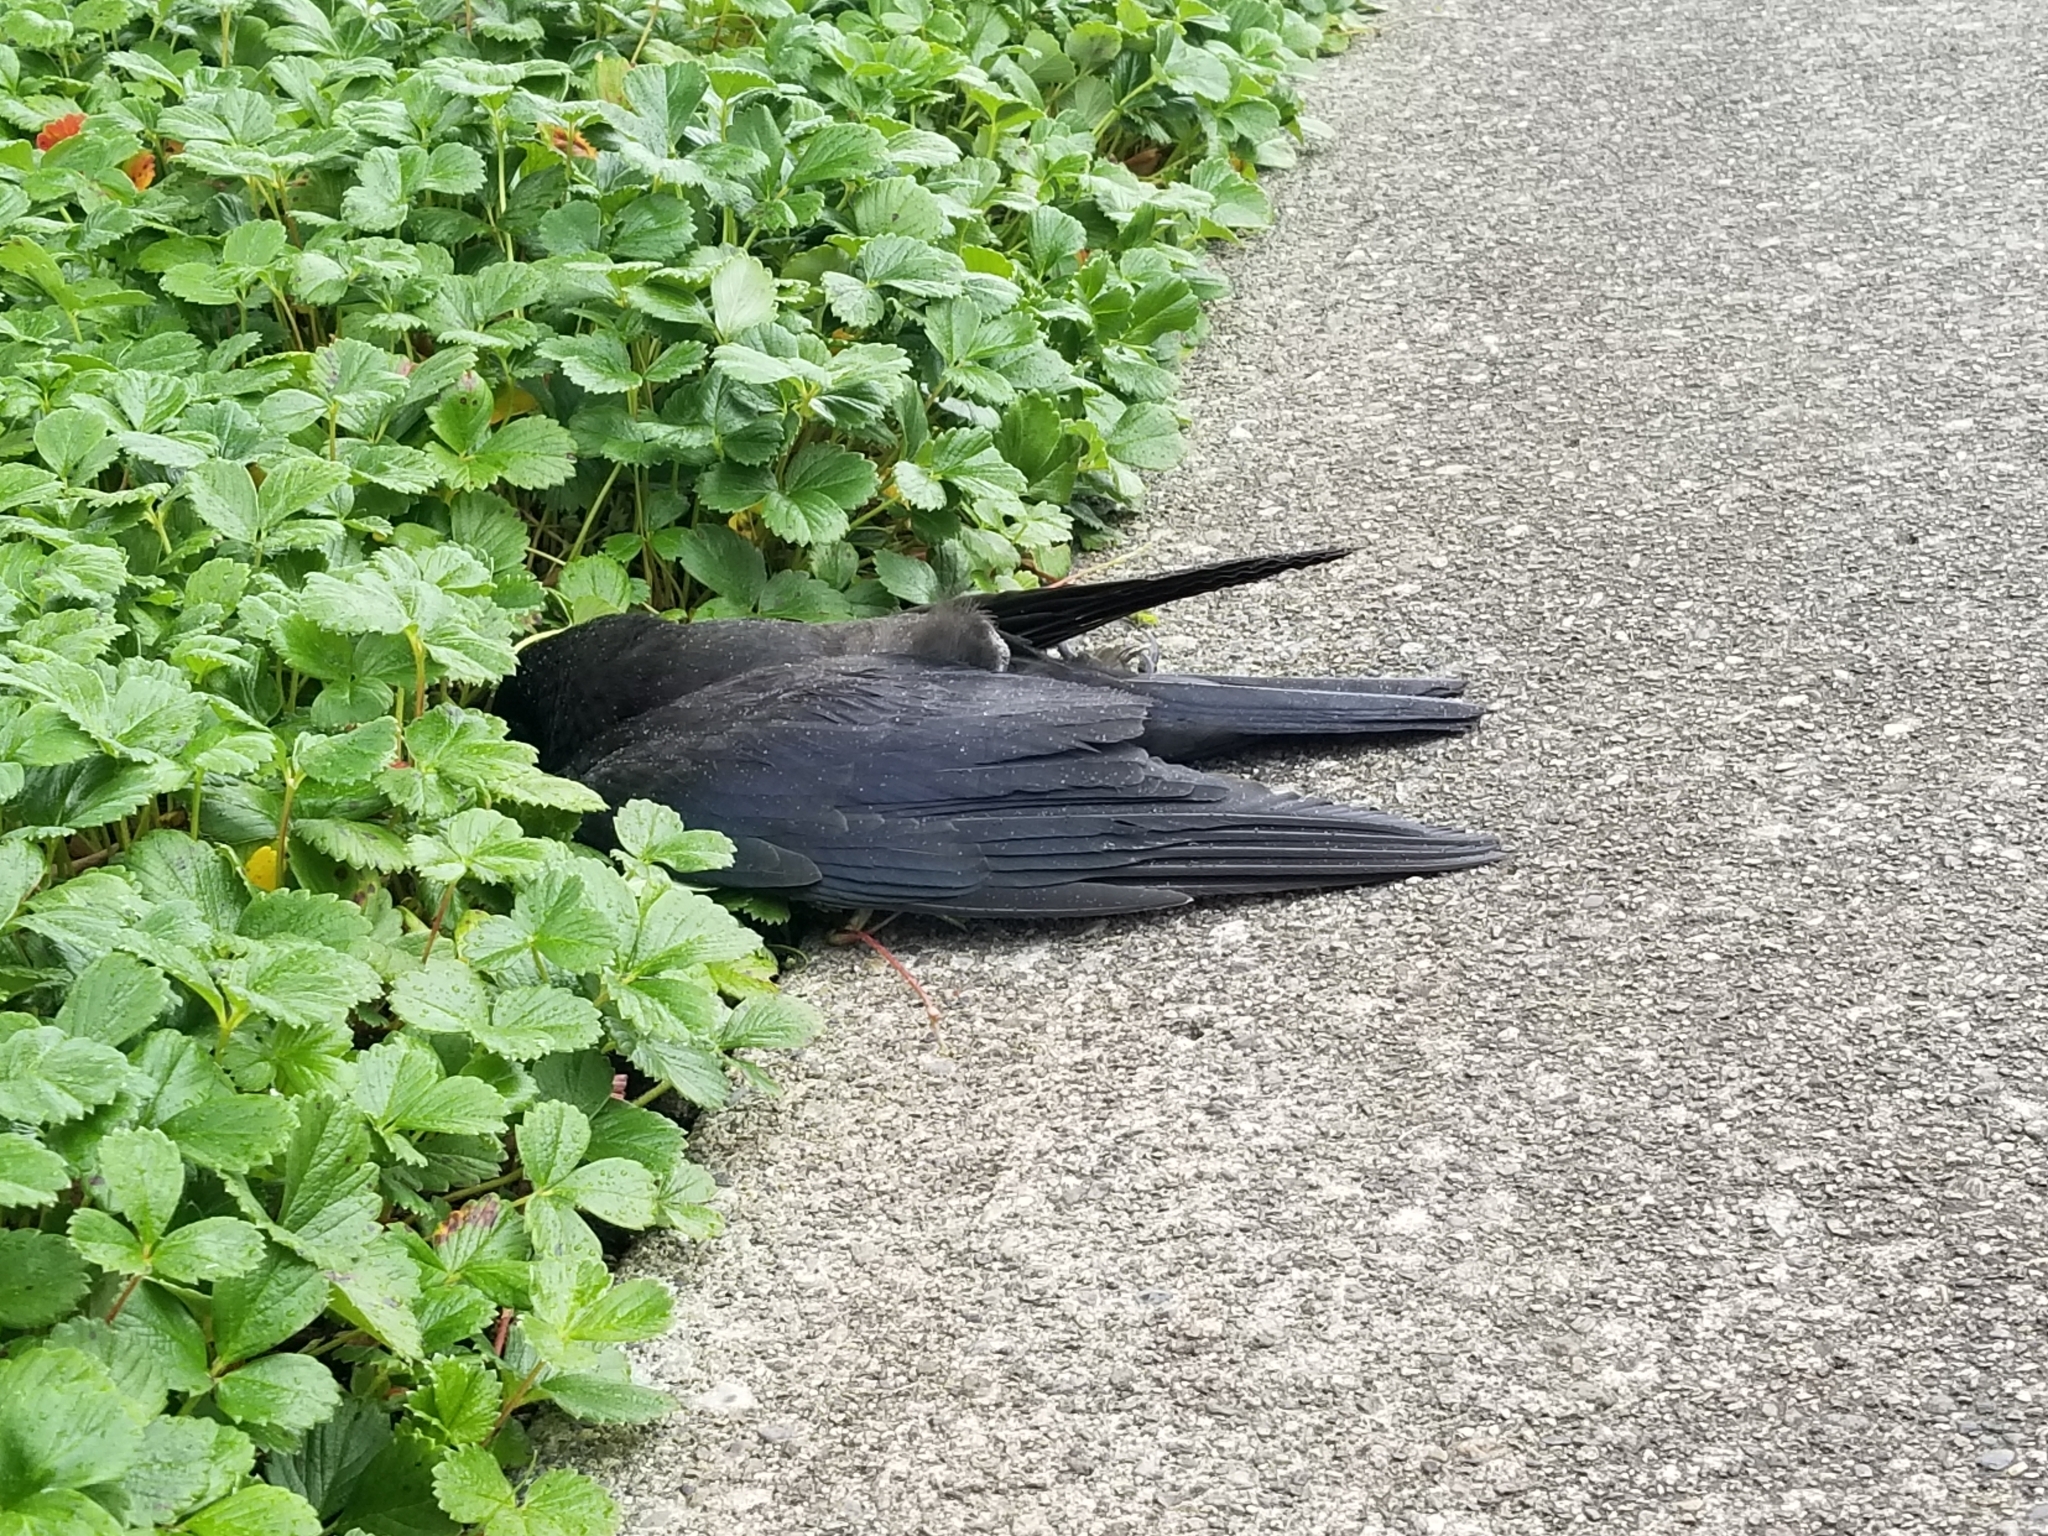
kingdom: Animalia
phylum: Chordata
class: Aves
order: Passeriformes
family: Corvidae
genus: Corvus
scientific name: Corvus brachyrhynchos
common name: American crow
